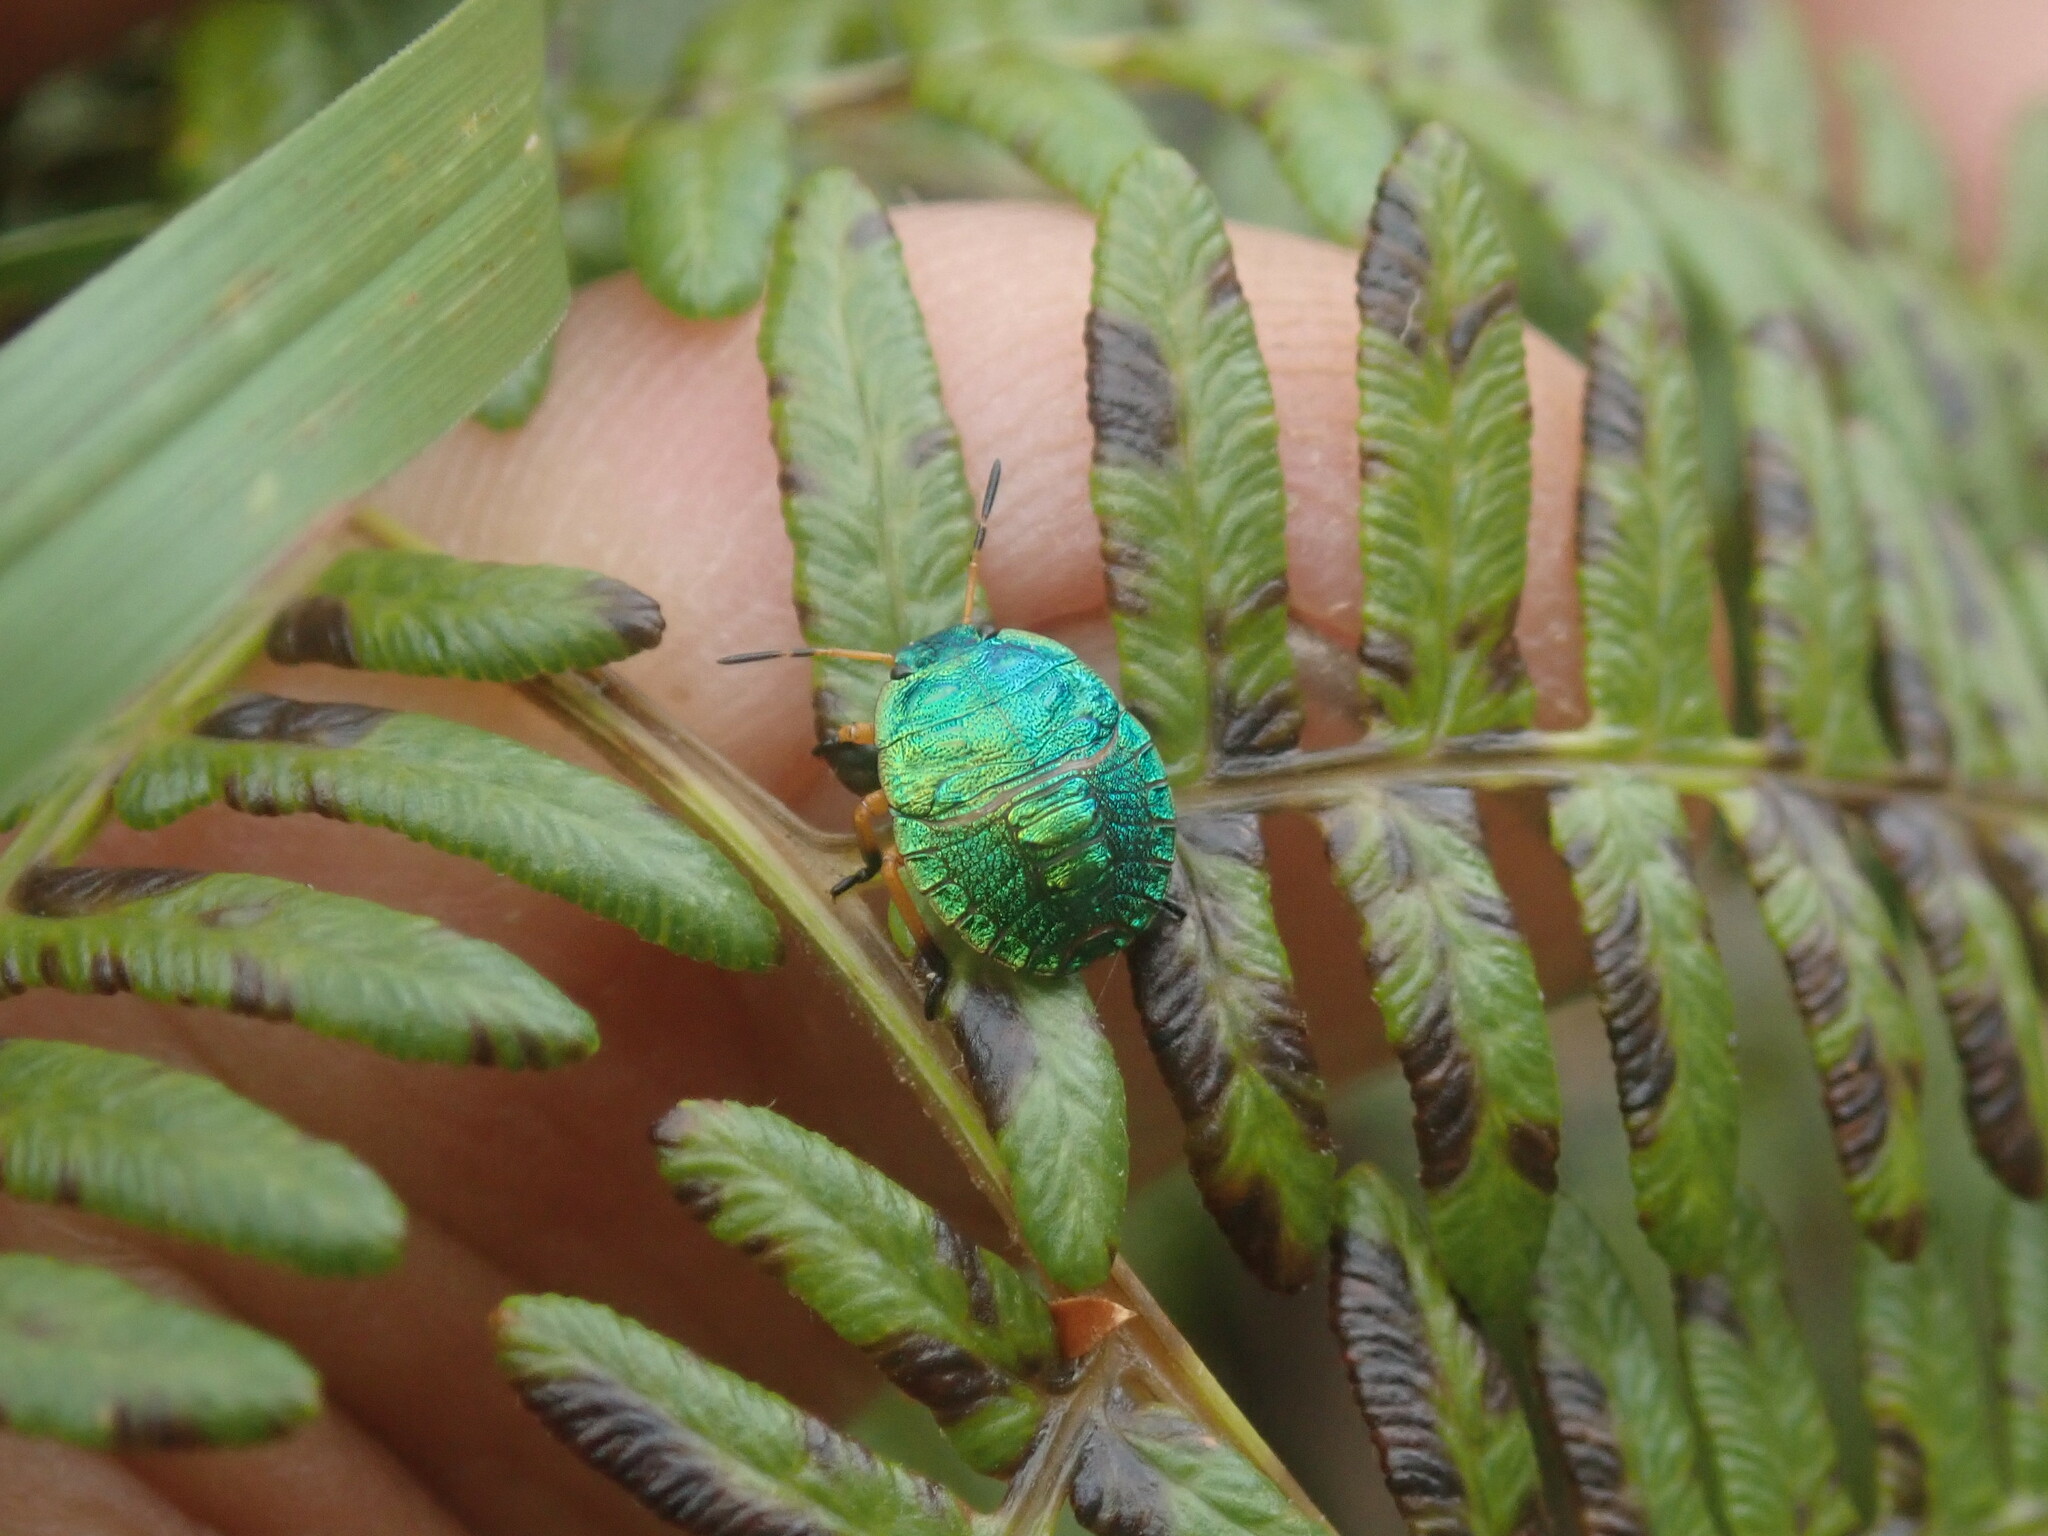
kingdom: Animalia
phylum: Arthropoda
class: Insecta
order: Hemiptera
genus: Erachtheus
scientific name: Erachtheus
